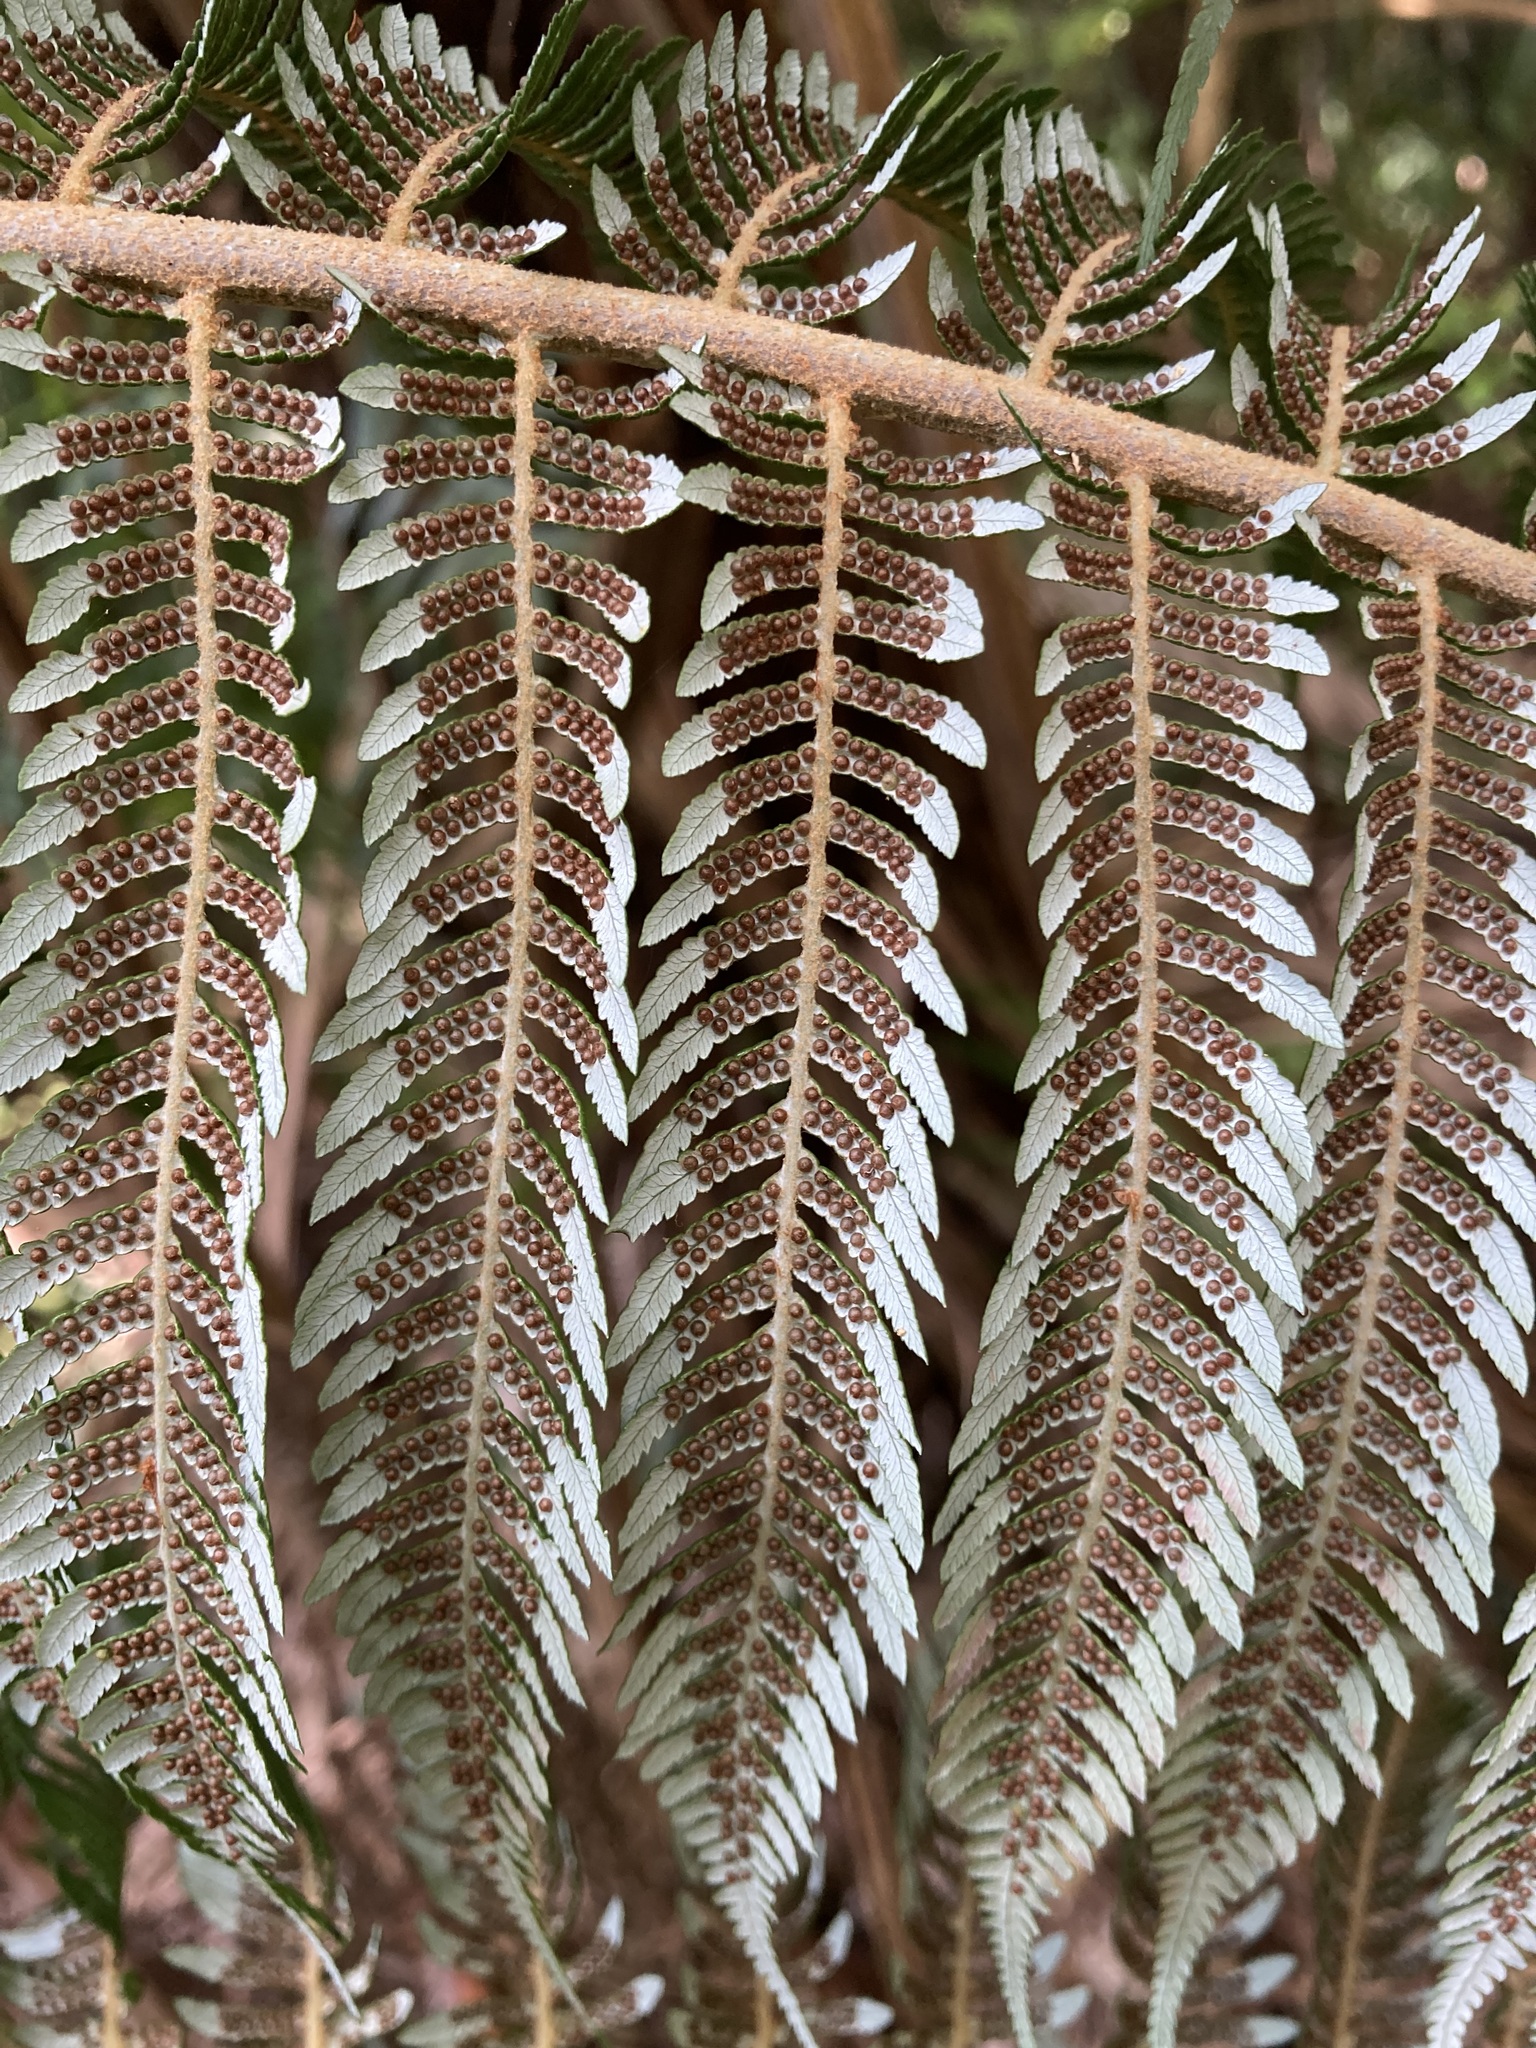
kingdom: Plantae
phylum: Tracheophyta
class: Polypodiopsida
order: Cyatheales
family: Cyatheaceae
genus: Alsophila
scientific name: Alsophila dealbata
